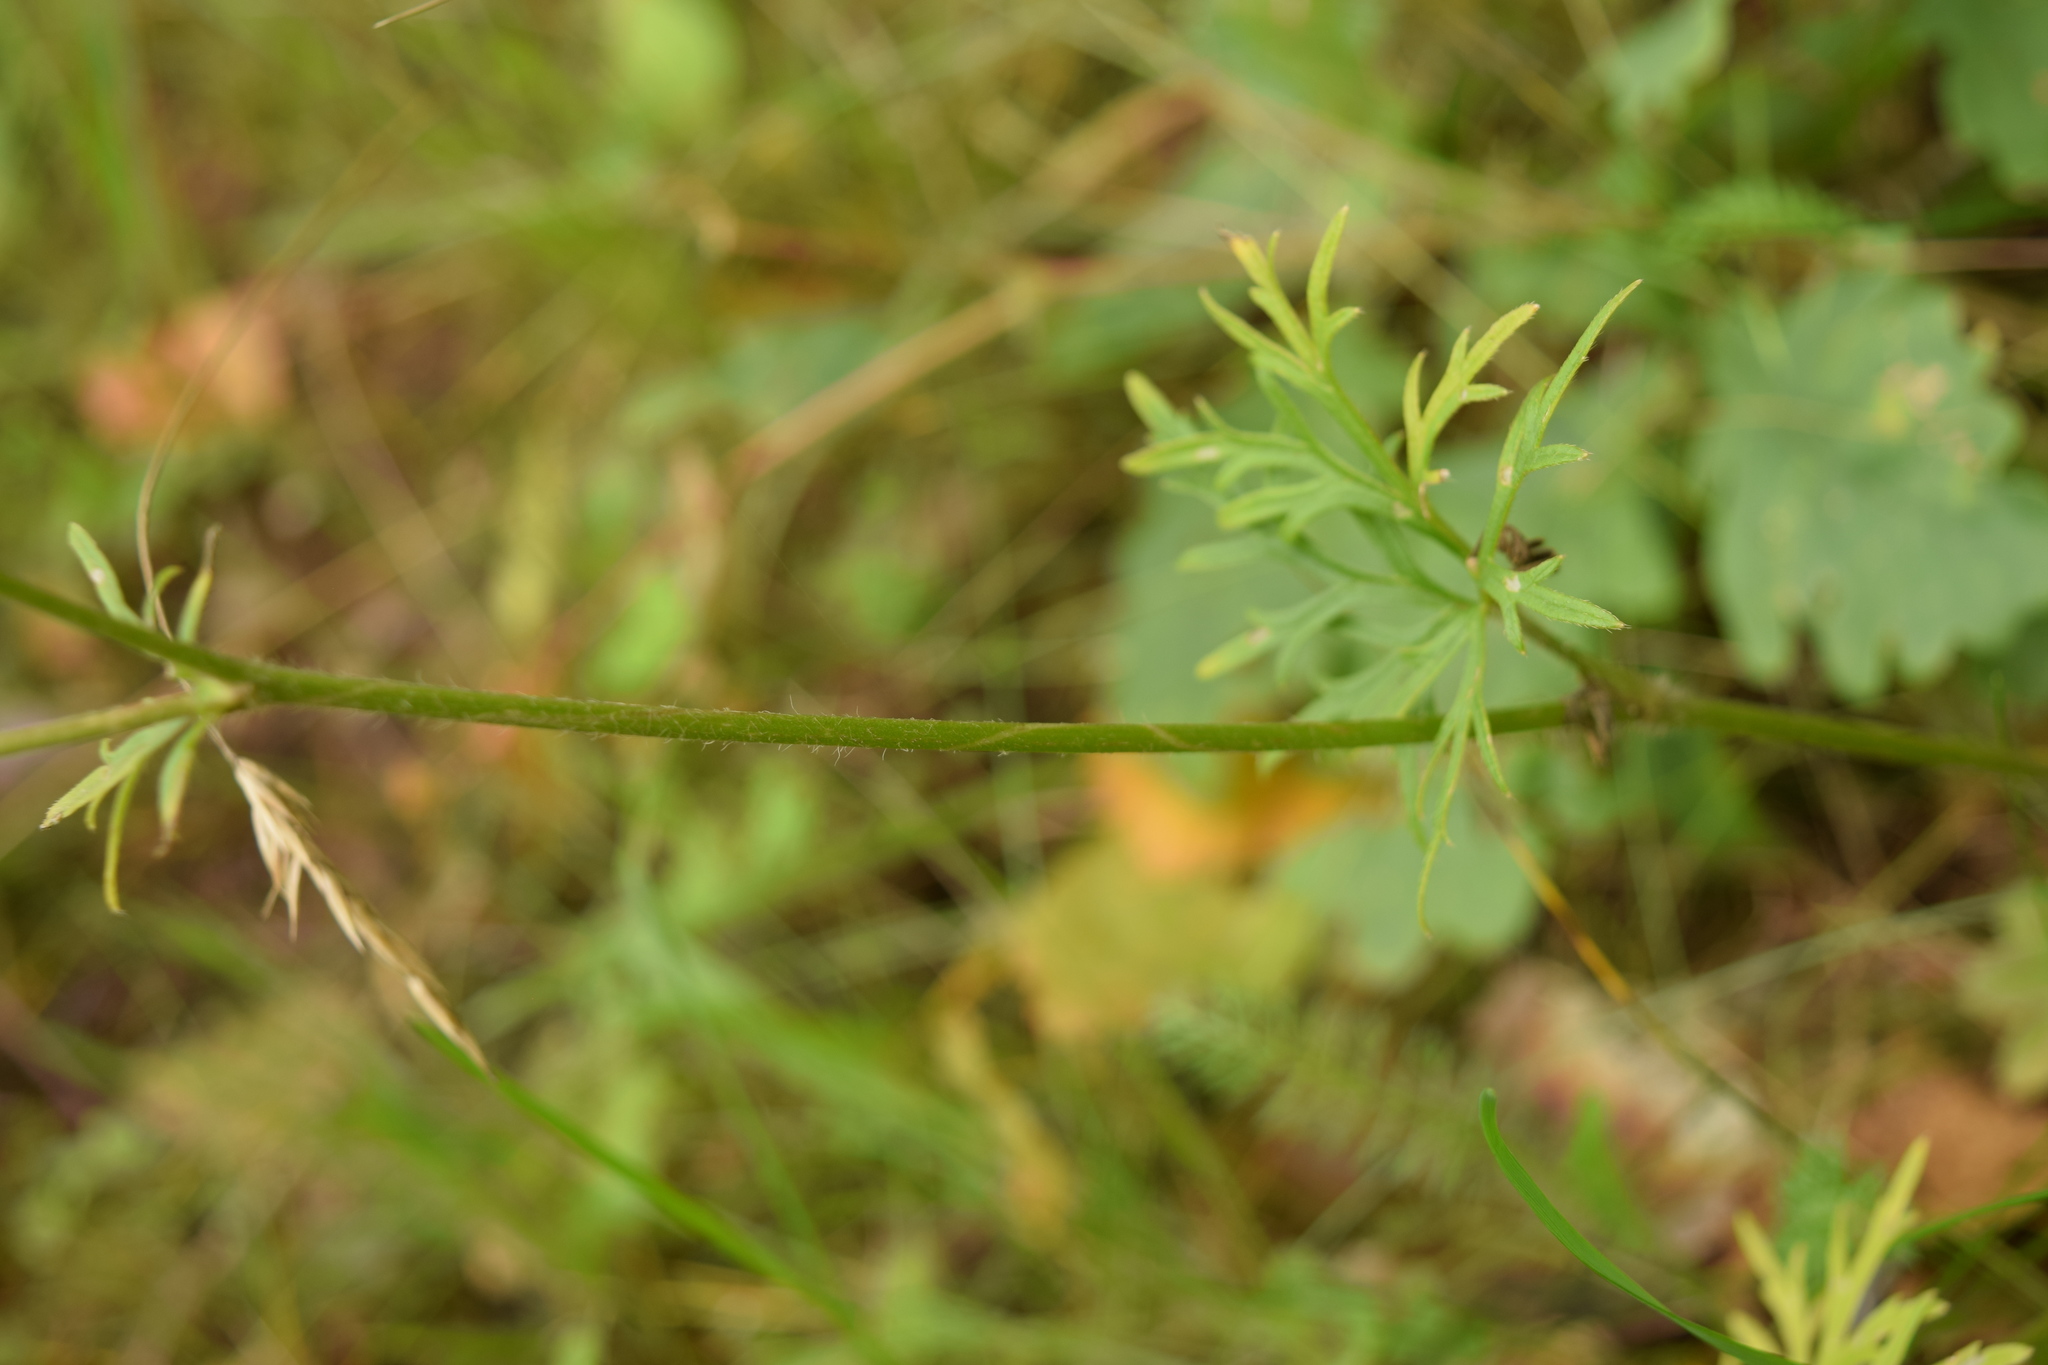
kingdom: Plantae
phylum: Tracheophyta
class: Magnoliopsida
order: Ranunculales
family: Ranunculaceae
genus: Ranunculus
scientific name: Ranunculus polyanthemos
